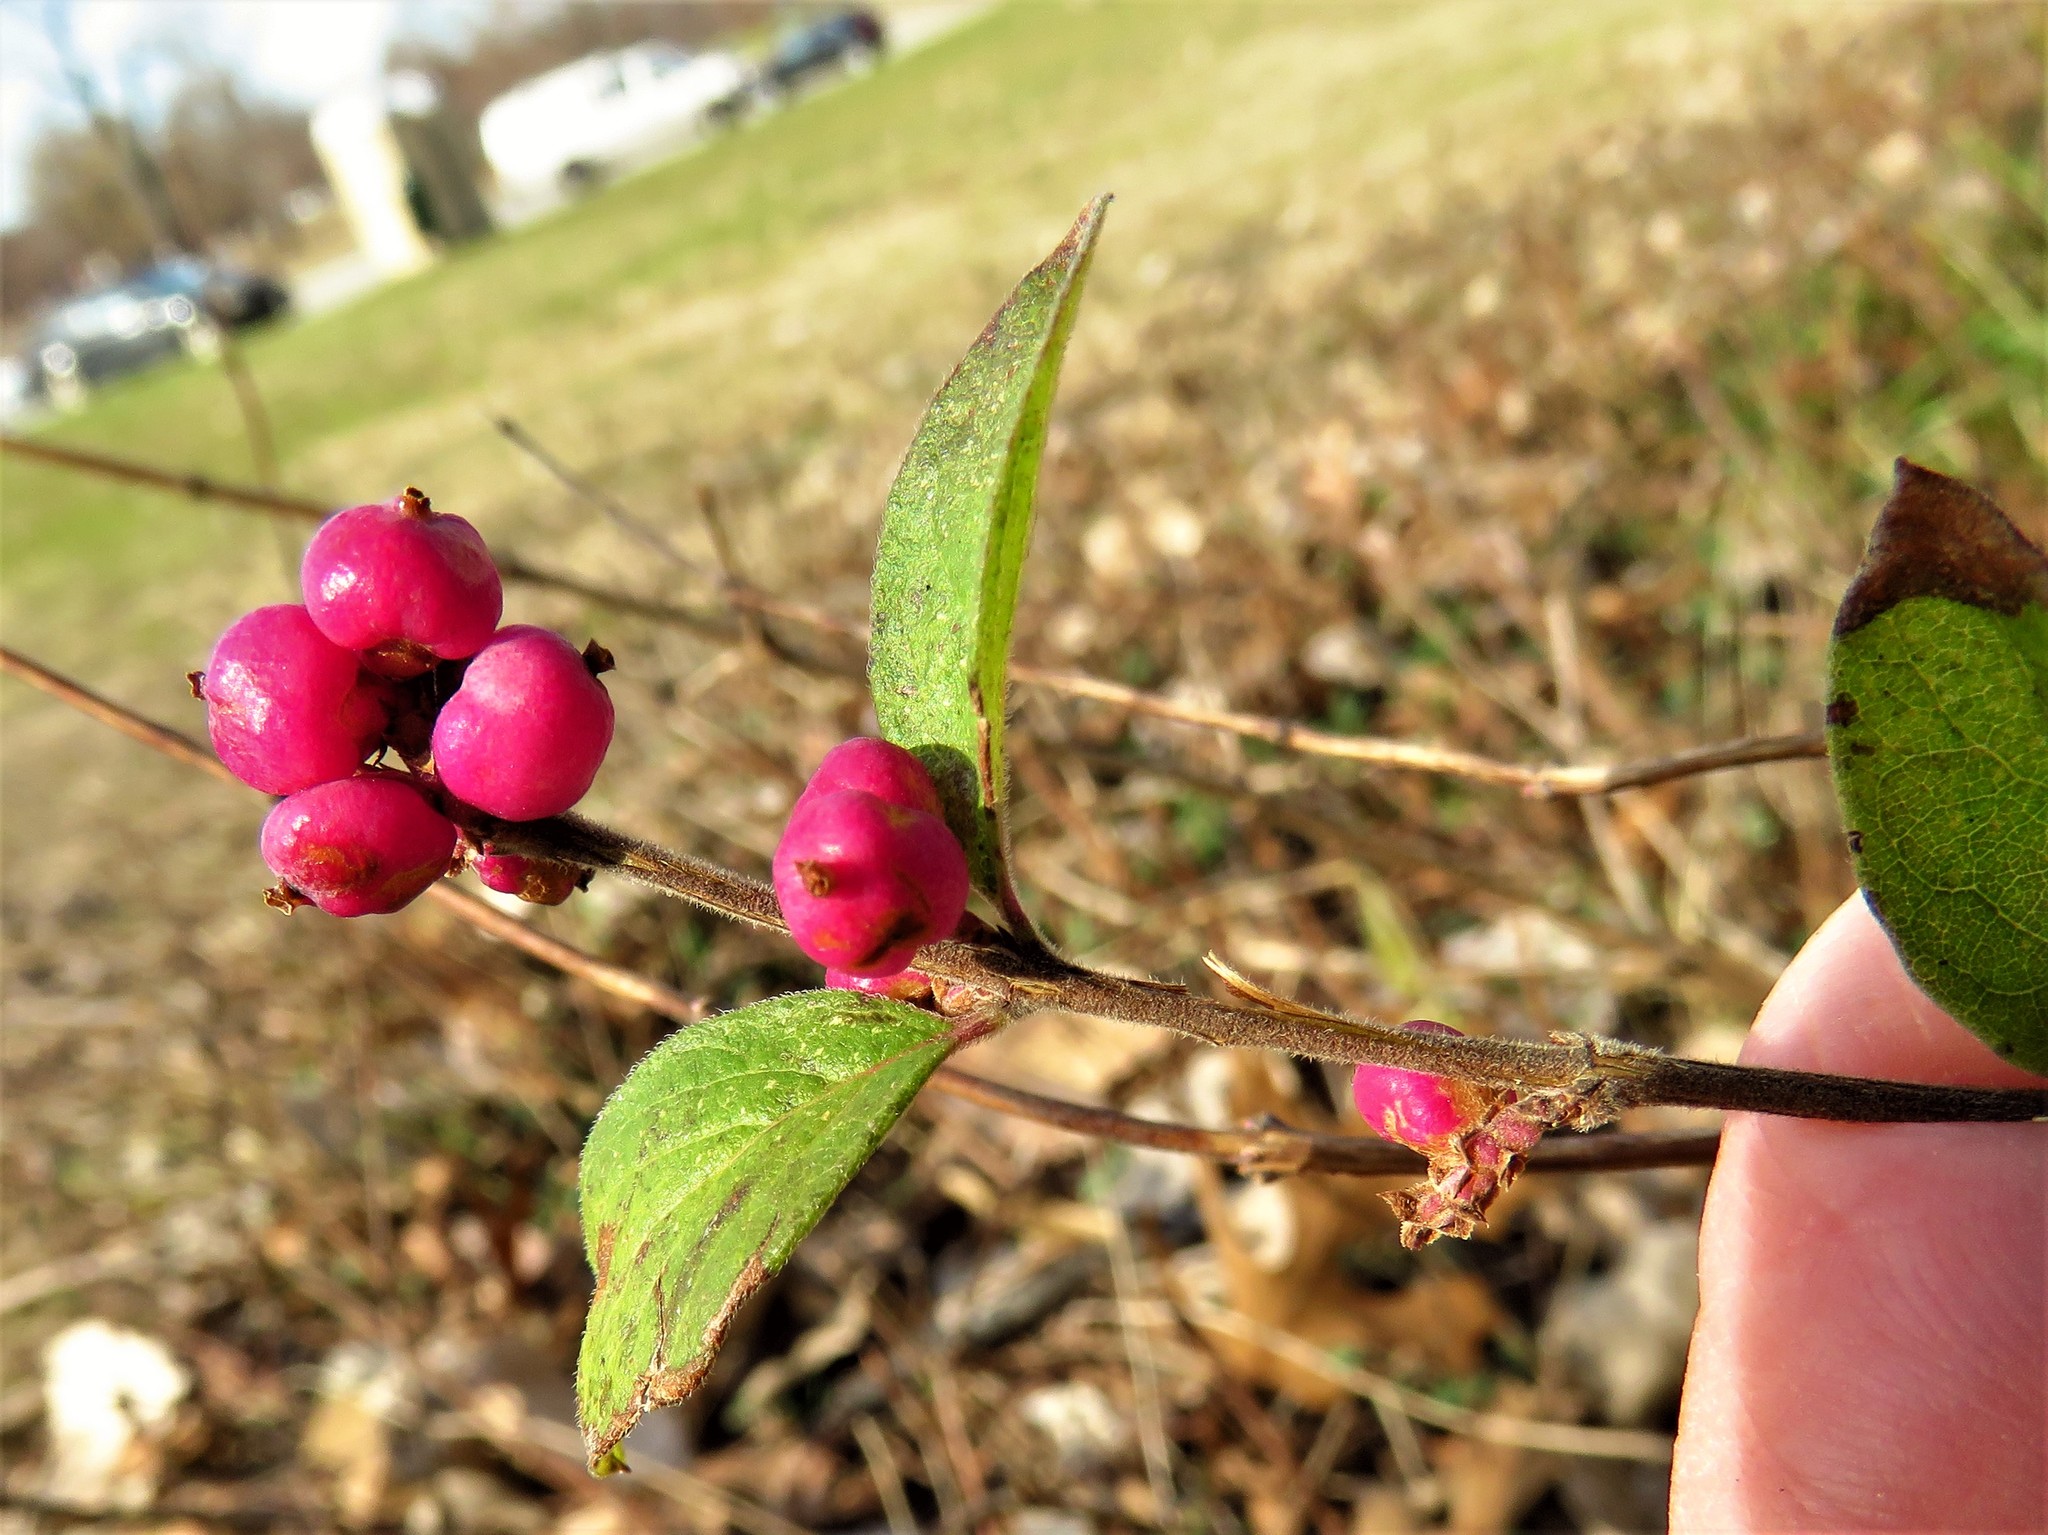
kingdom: Plantae
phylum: Tracheophyta
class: Magnoliopsida
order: Dipsacales
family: Caprifoliaceae
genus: Symphoricarpos
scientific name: Symphoricarpos orbiculatus
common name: Coralberry
